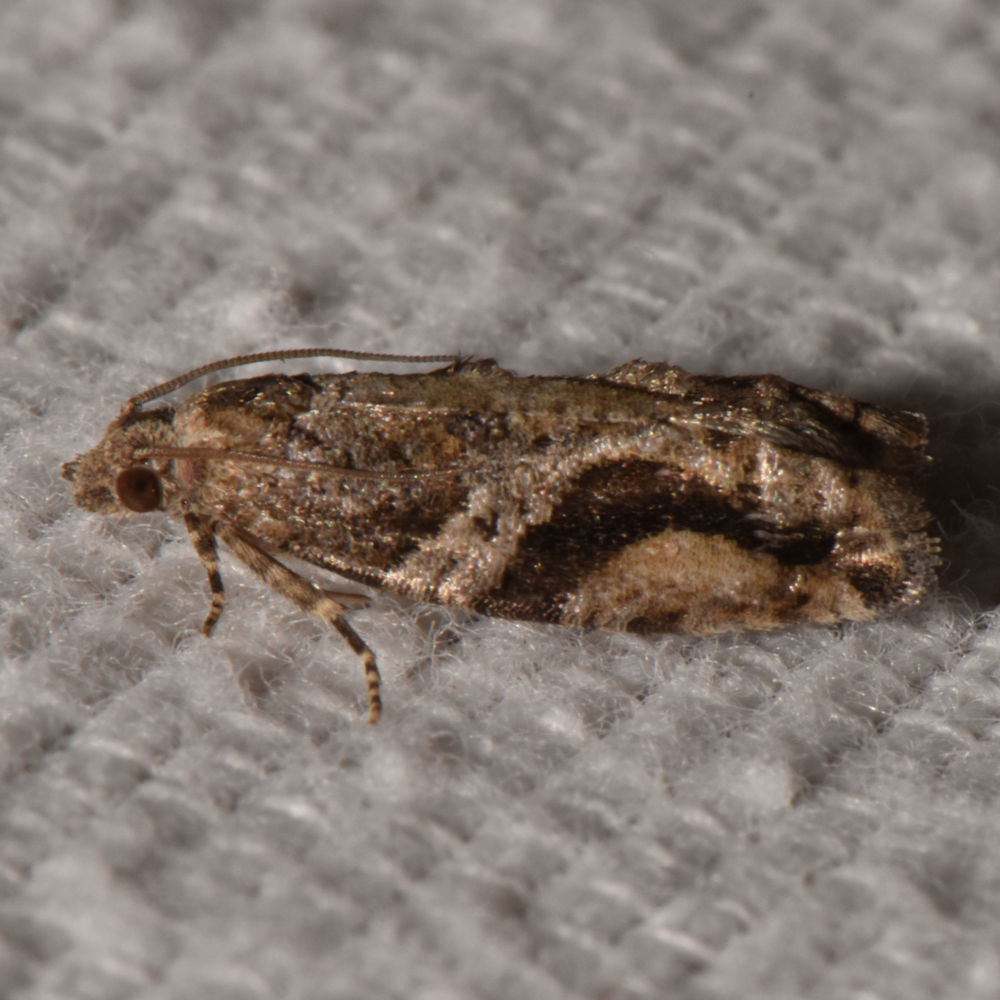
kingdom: Animalia
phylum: Arthropoda
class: Insecta
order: Lepidoptera
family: Tortricidae
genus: Proteoteras
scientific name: Proteoteras crescentana
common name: Black-crescent proteoteras moth
